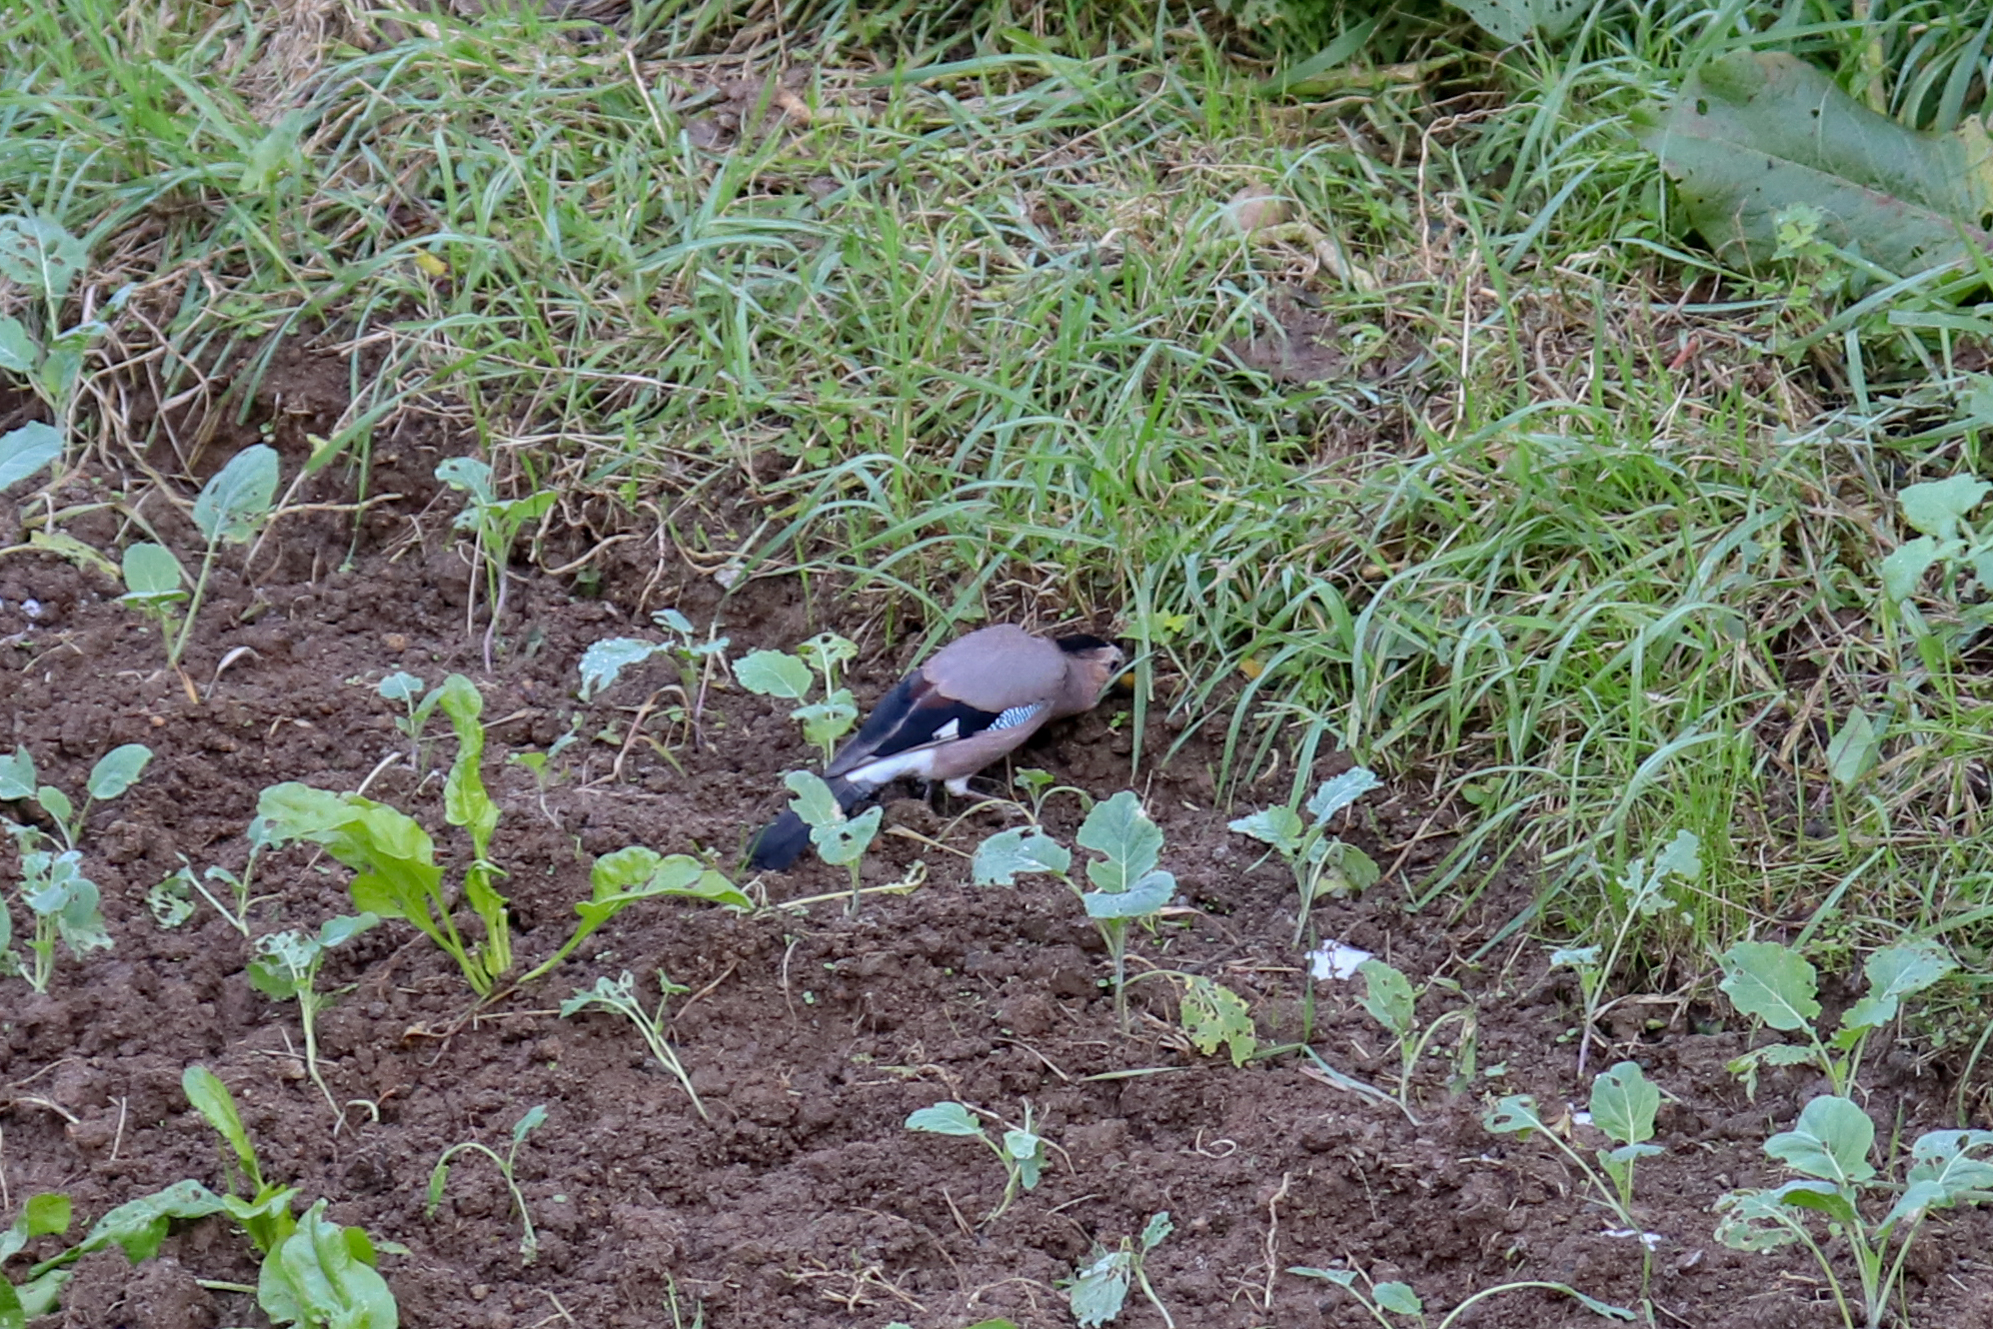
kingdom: Animalia
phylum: Chordata
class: Aves
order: Passeriformes
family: Corvidae
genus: Garrulus
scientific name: Garrulus glandarius
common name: Eurasian jay
